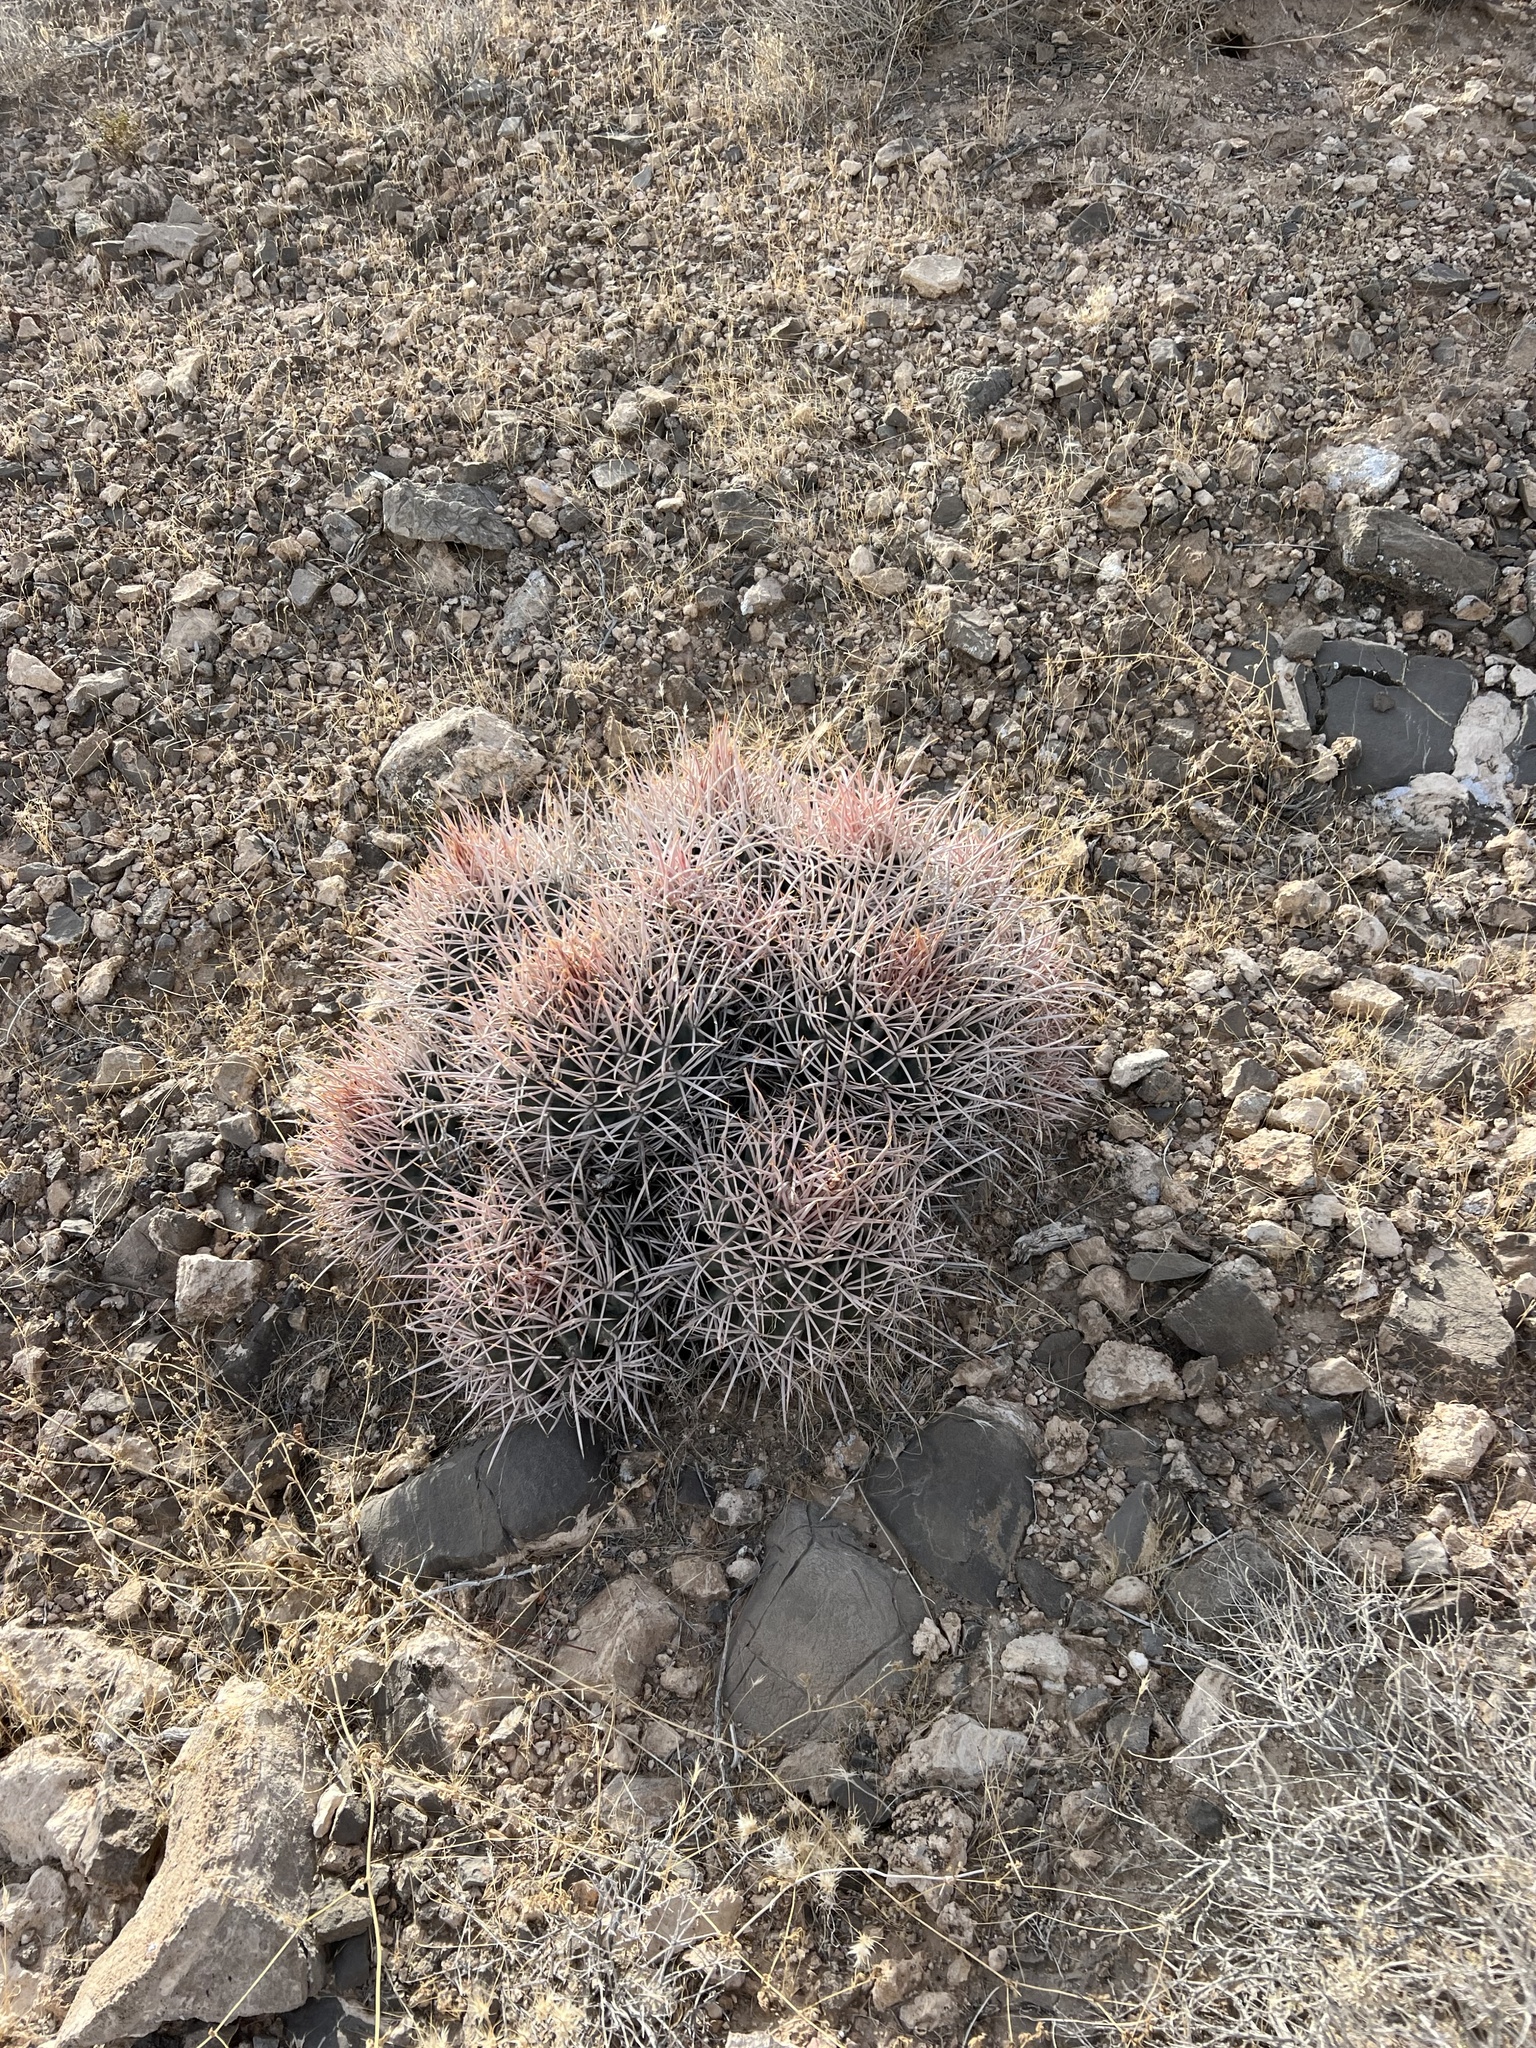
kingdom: Plantae
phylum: Tracheophyta
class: Magnoliopsida
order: Caryophyllales
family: Cactaceae
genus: Echinocactus
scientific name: Echinocactus polycephalus
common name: Cottontop cactus
